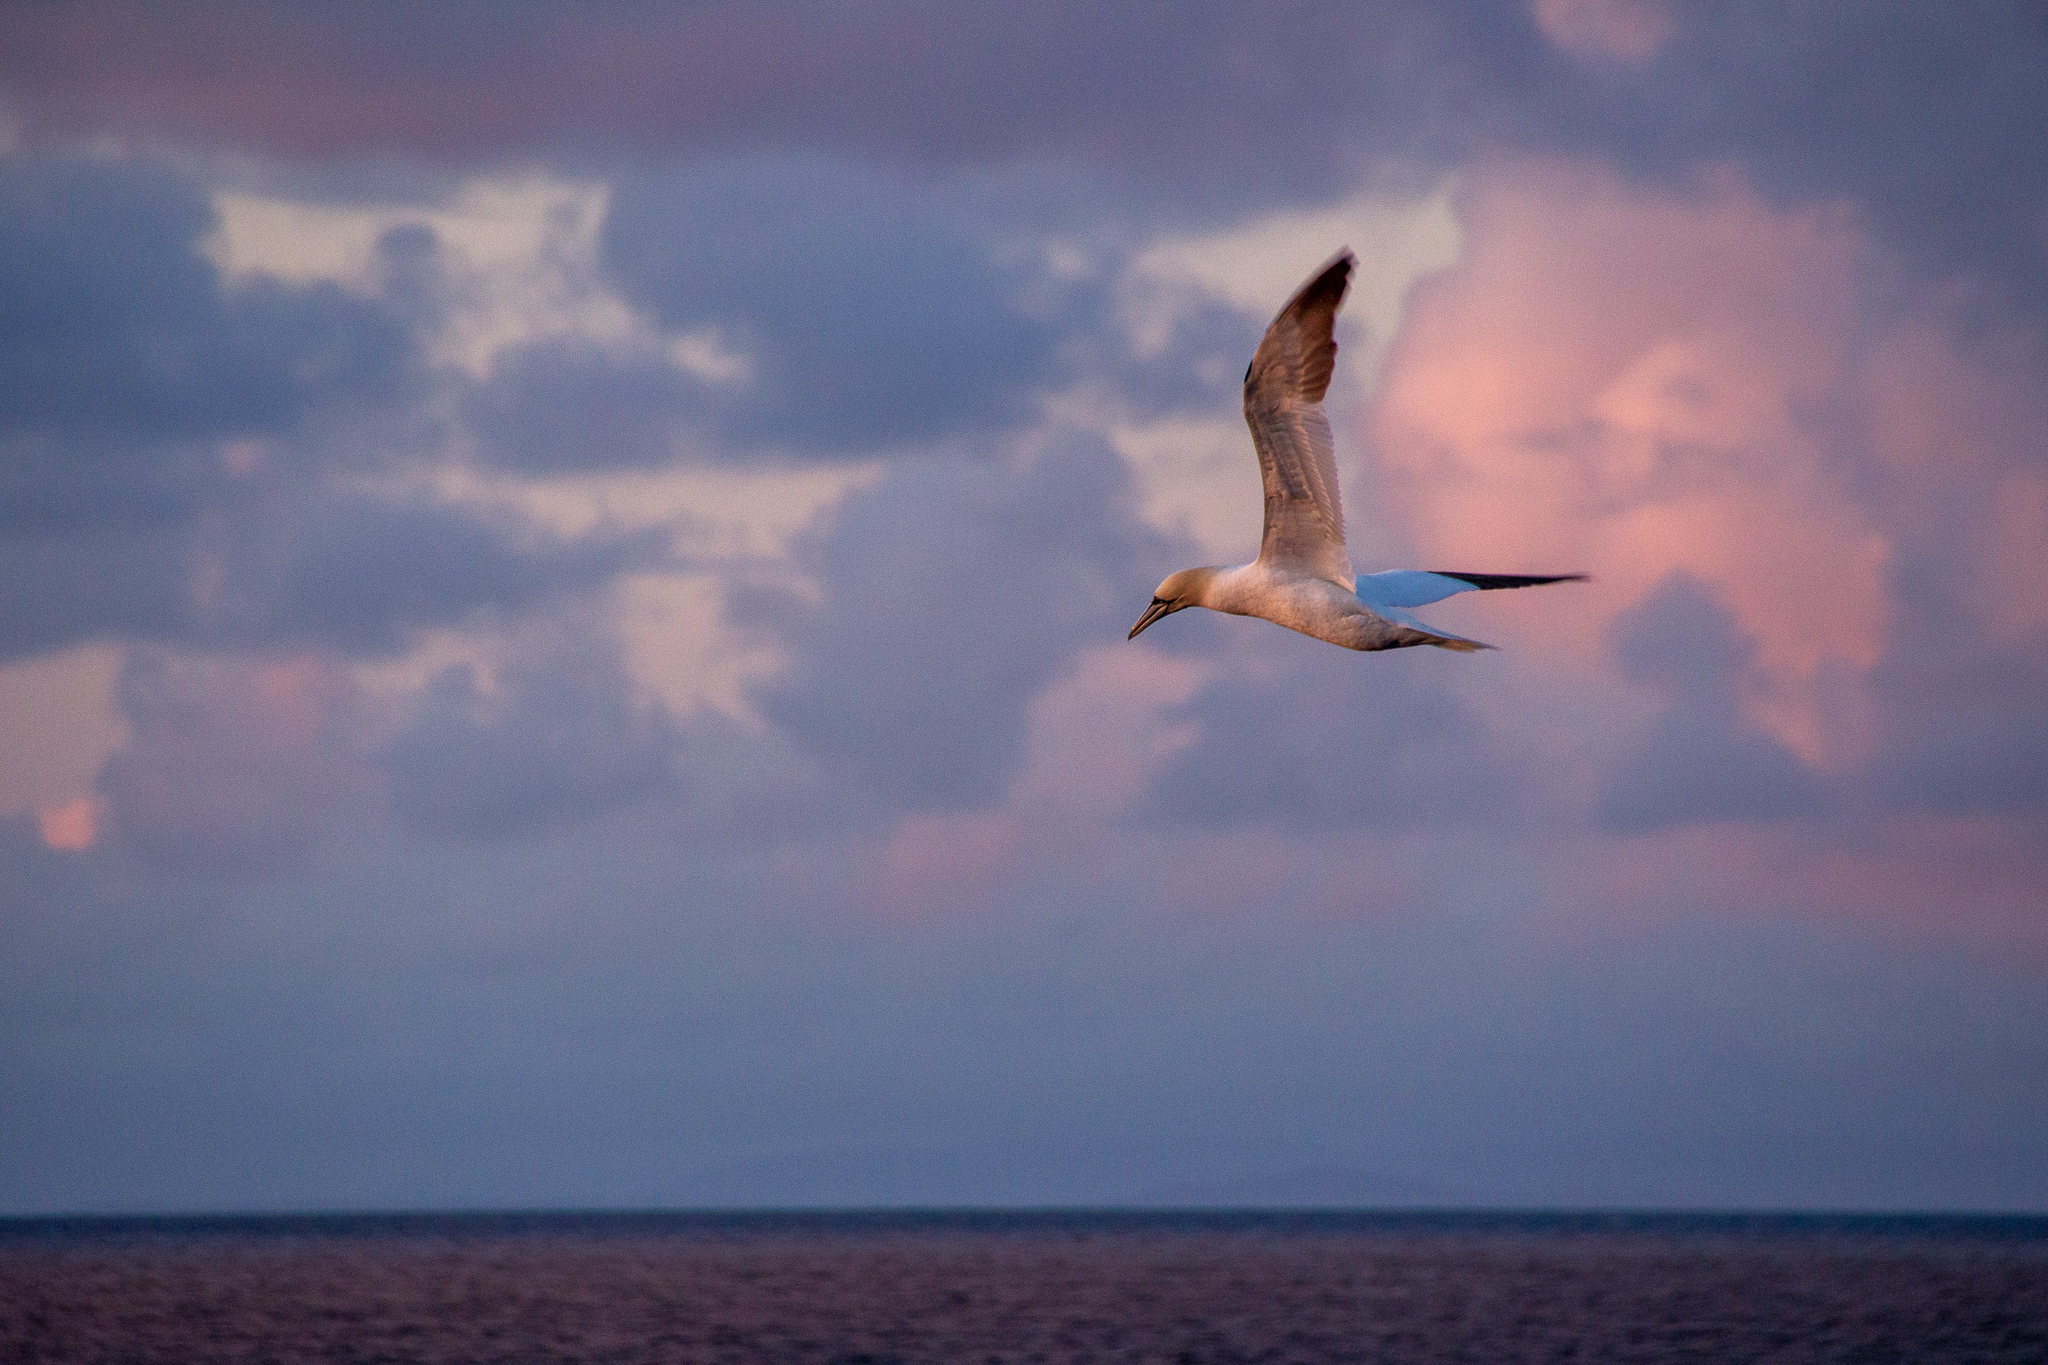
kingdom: Animalia
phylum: Chordata
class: Aves
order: Suliformes
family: Sulidae
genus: Morus
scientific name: Morus bassanus
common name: Northern gannet
